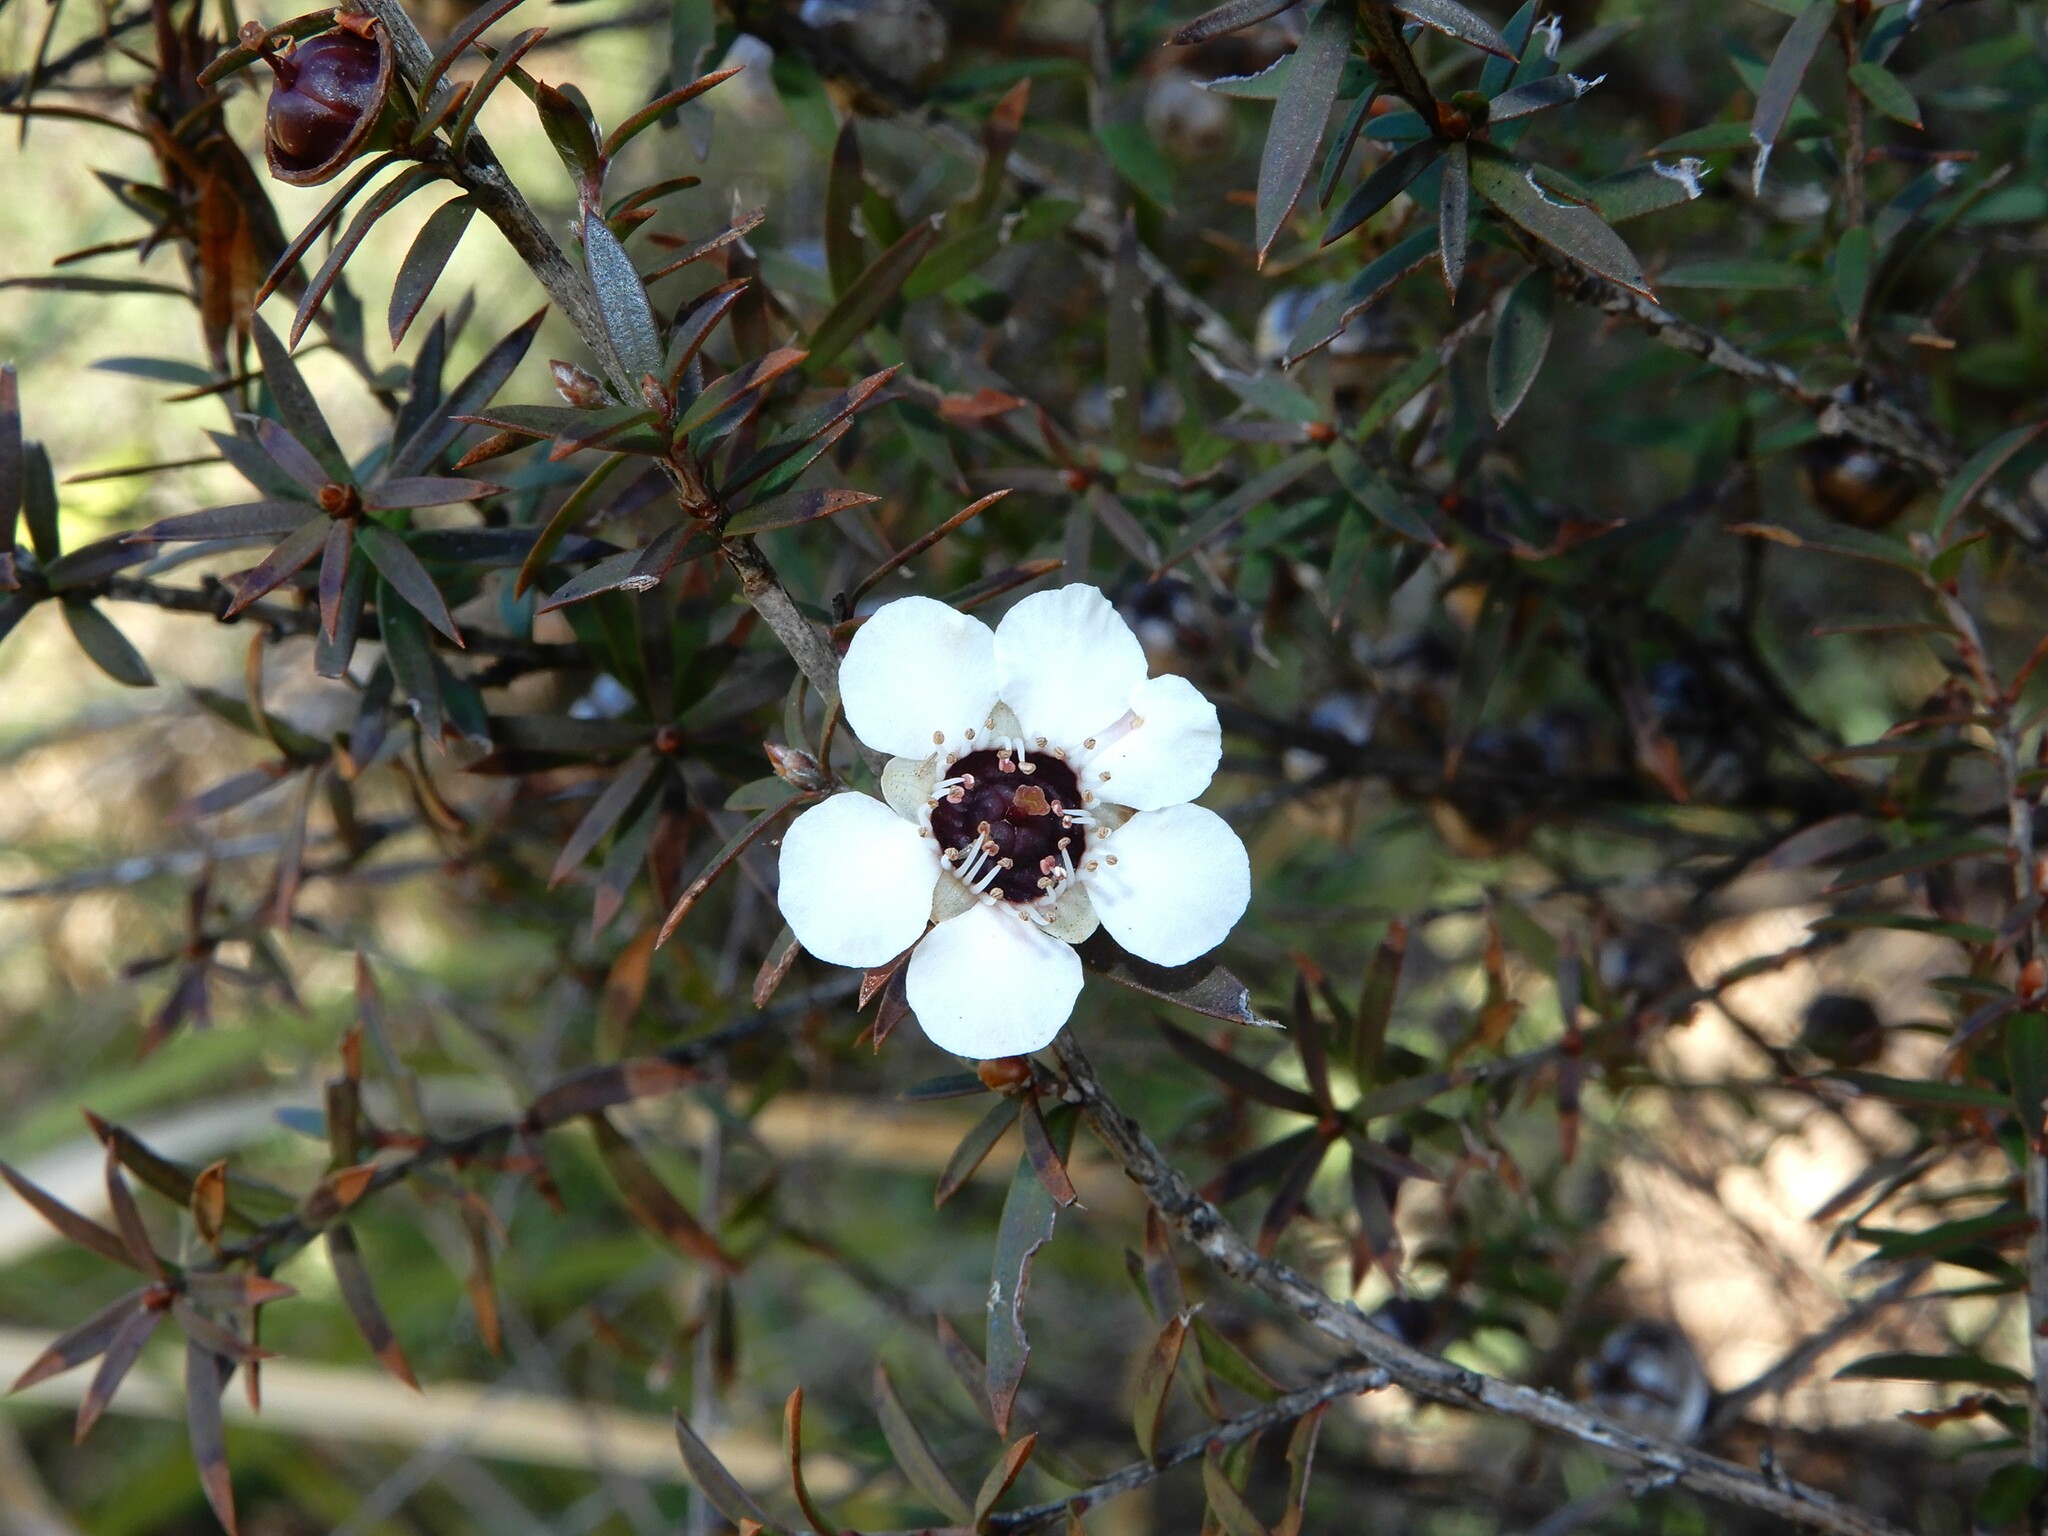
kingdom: Plantae
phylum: Tracheophyta
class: Magnoliopsida
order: Myrtales
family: Myrtaceae
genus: Leptospermum
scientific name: Leptospermum scoparium
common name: Broom tea-tree
